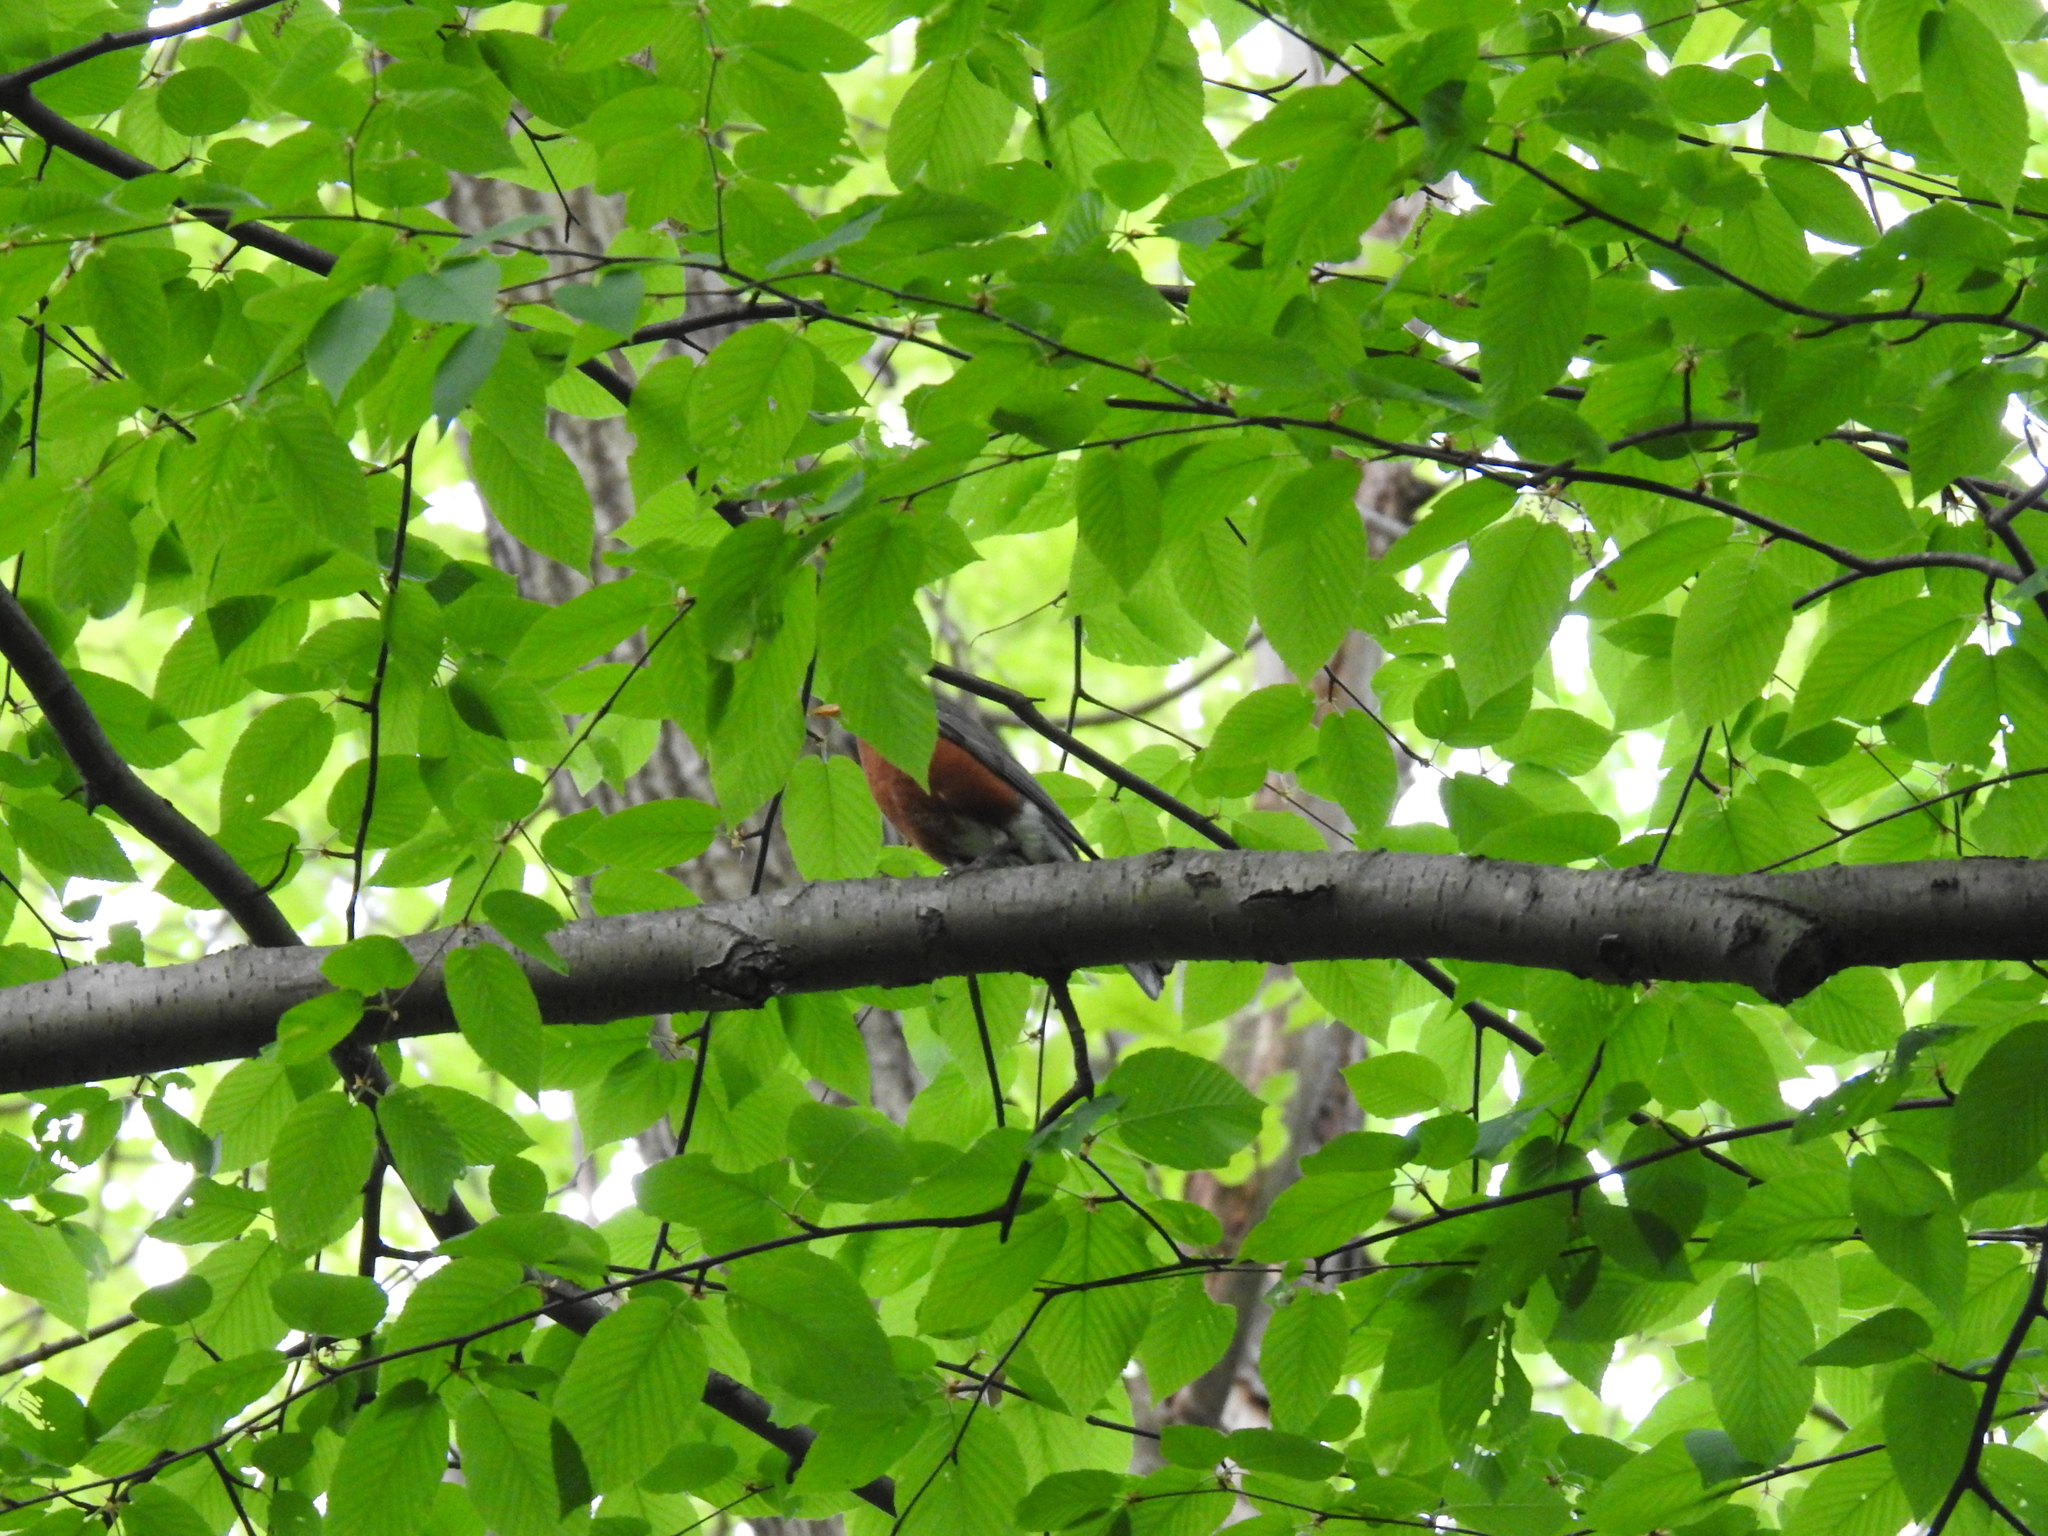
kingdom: Animalia
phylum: Chordata
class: Aves
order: Passeriformes
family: Turdidae
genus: Turdus
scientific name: Turdus migratorius
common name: American robin
